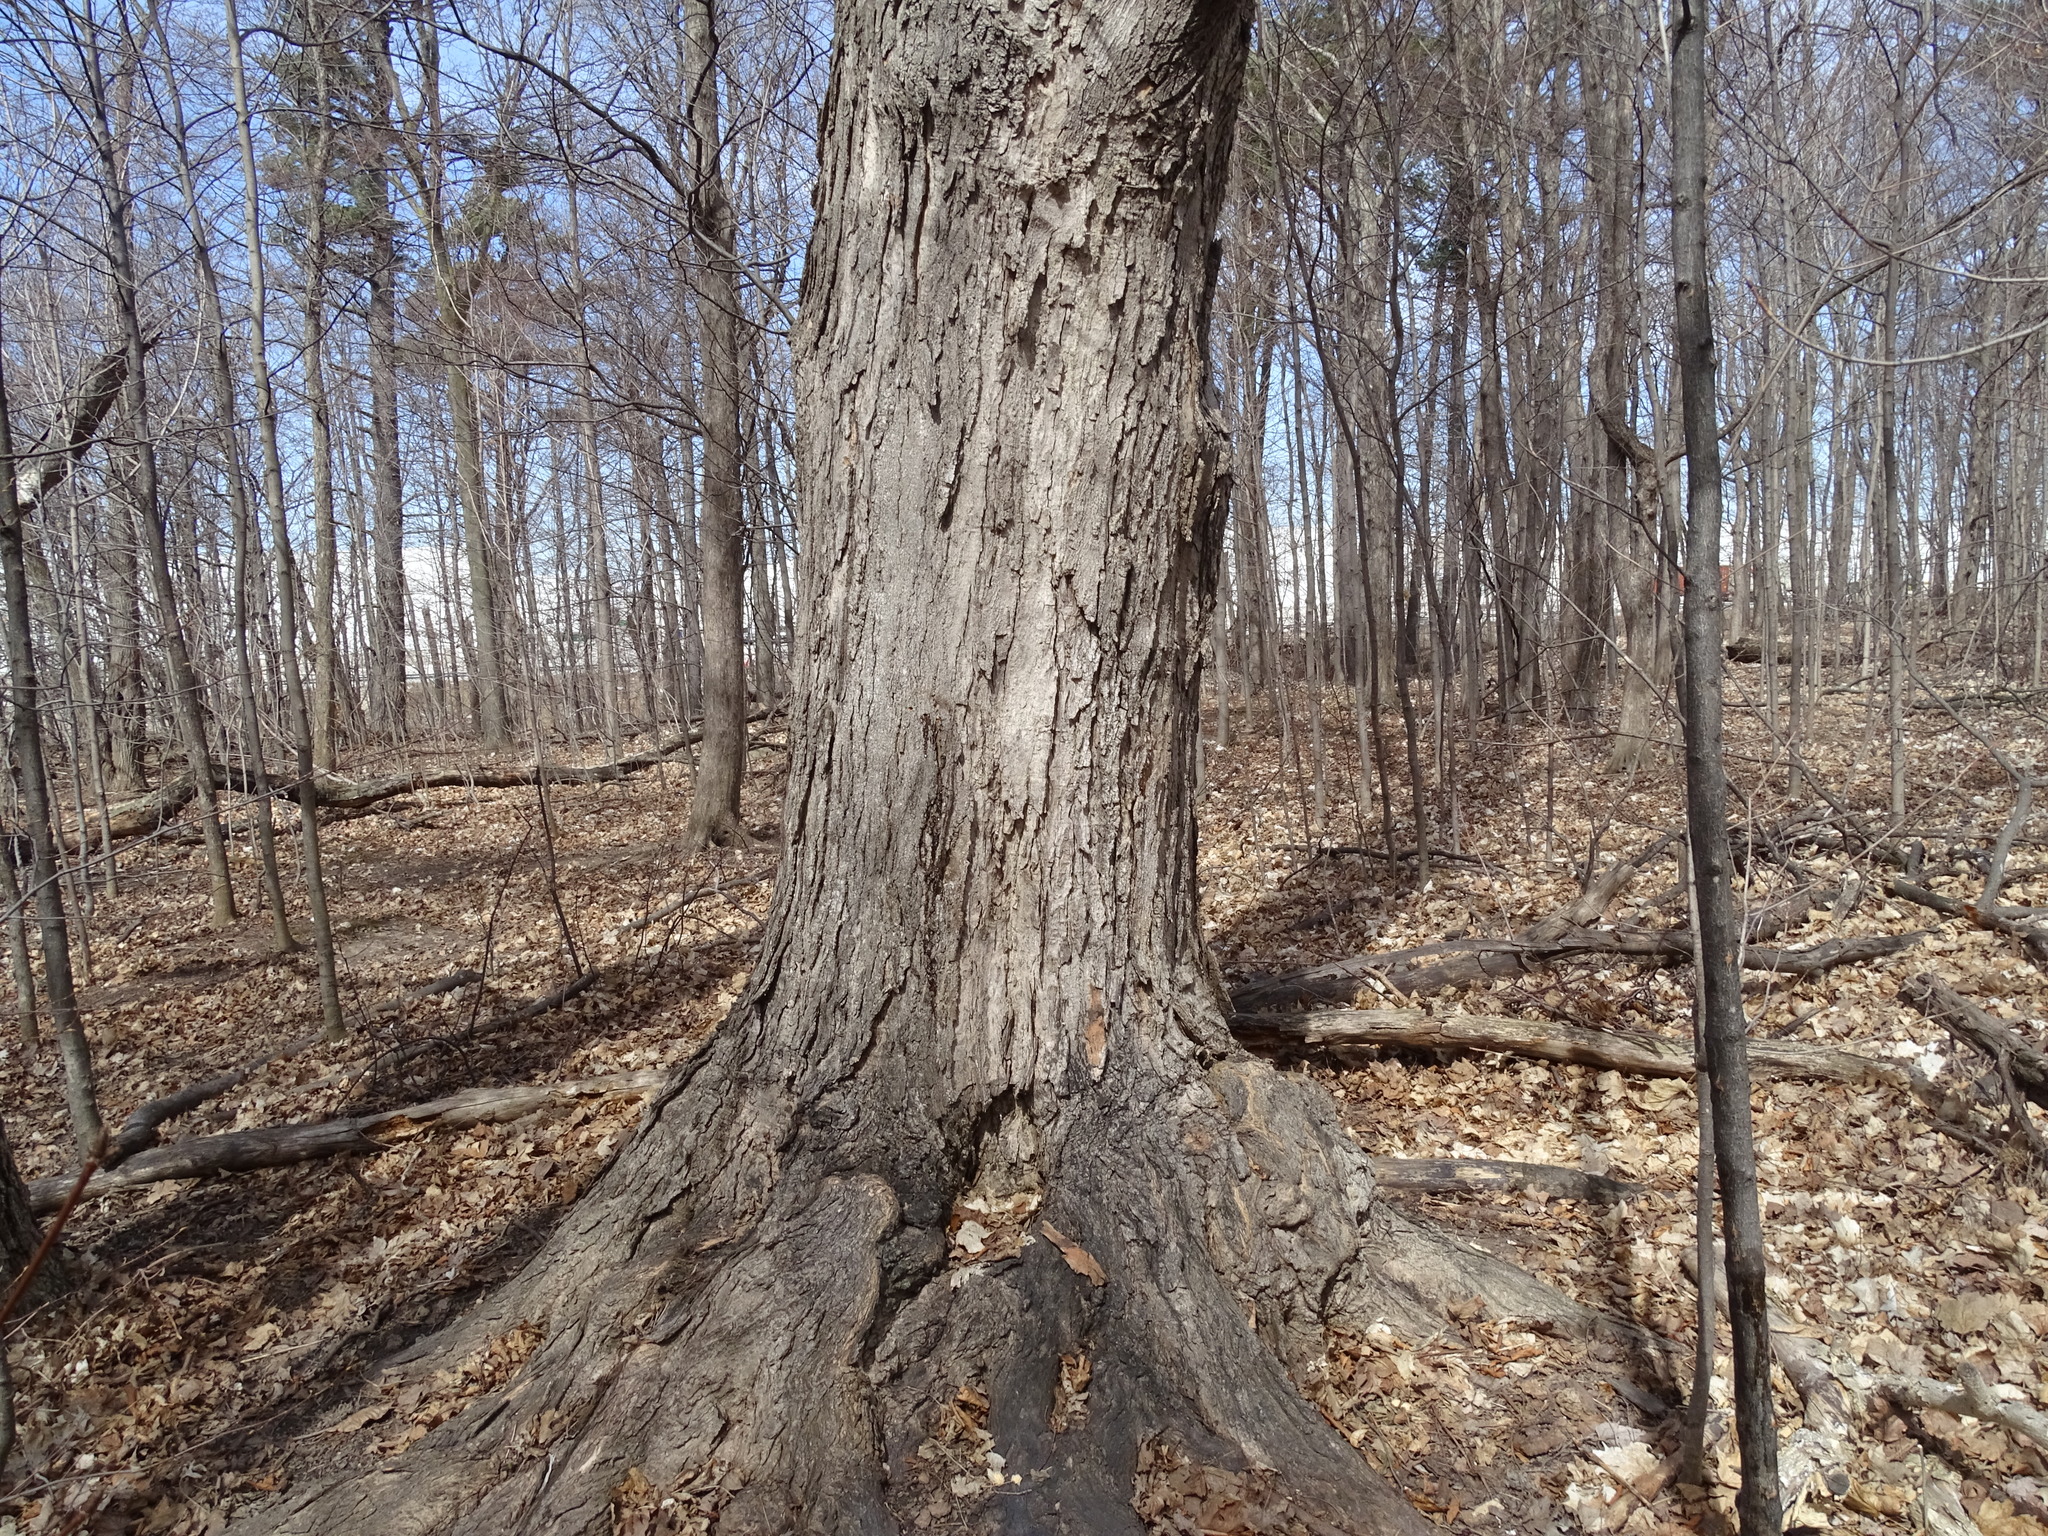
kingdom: Plantae
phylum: Tracheophyta
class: Magnoliopsida
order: Sapindales
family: Sapindaceae
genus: Acer
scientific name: Acer saccharum
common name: Sugar maple
